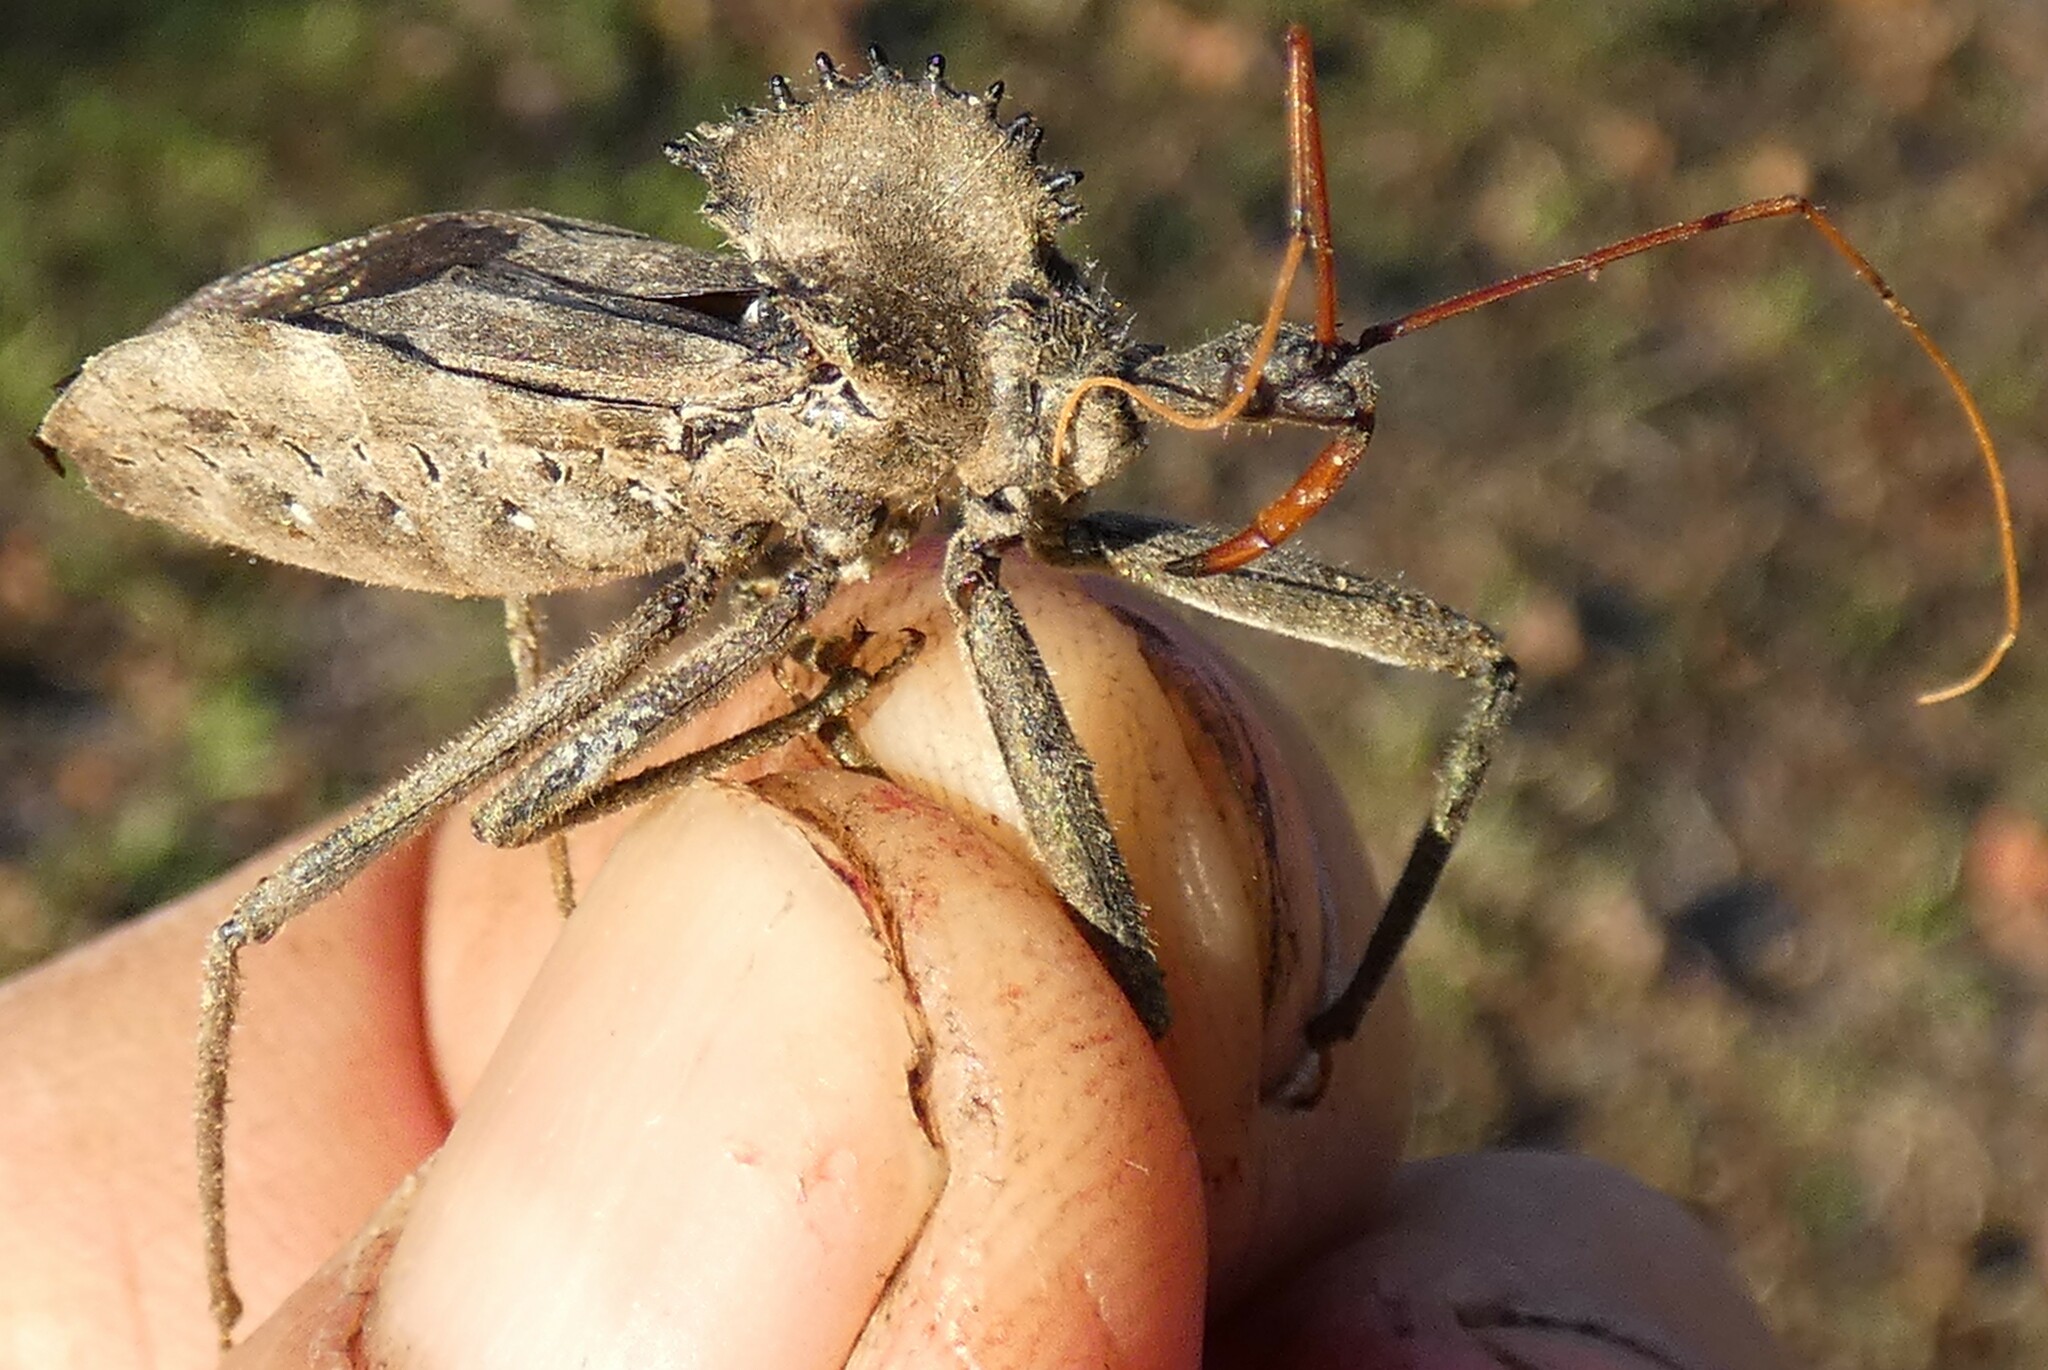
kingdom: Animalia
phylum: Arthropoda
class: Insecta
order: Hemiptera
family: Reduviidae
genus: Arilus
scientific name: Arilus cristatus
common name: North american wheel bug
